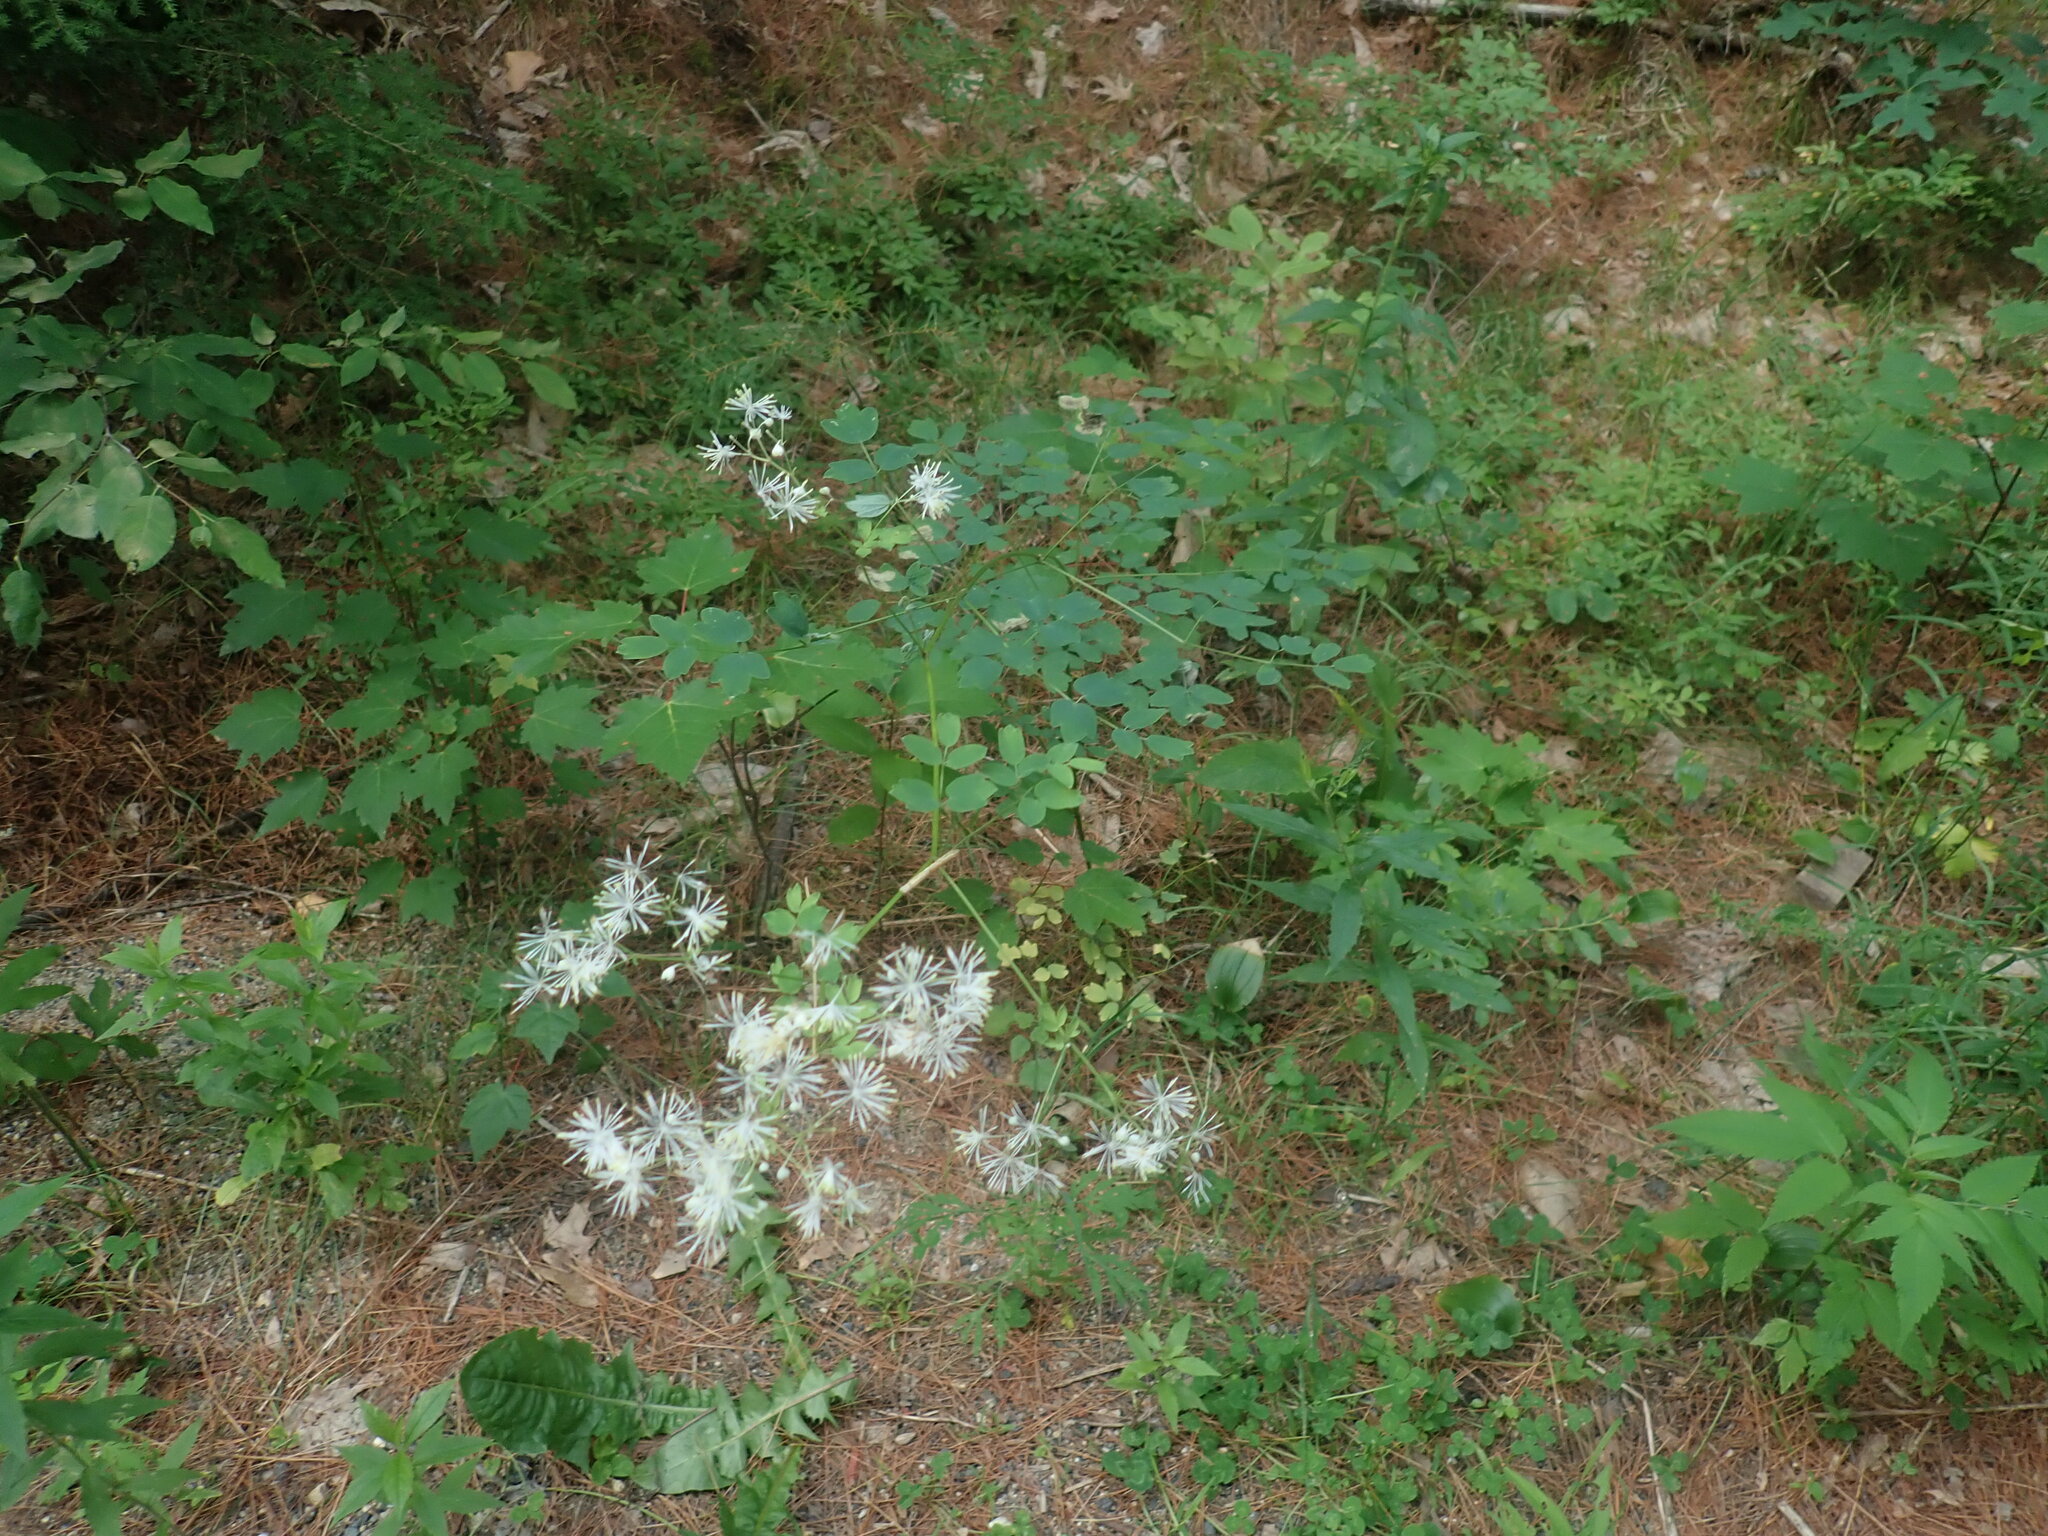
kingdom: Plantae
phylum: Tracheophyta
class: Magnoliopsida
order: Ranunculales
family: Ranunculaceae
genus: Thalictrum
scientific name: Thalictrum pubescens
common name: King-of-the-meadow
